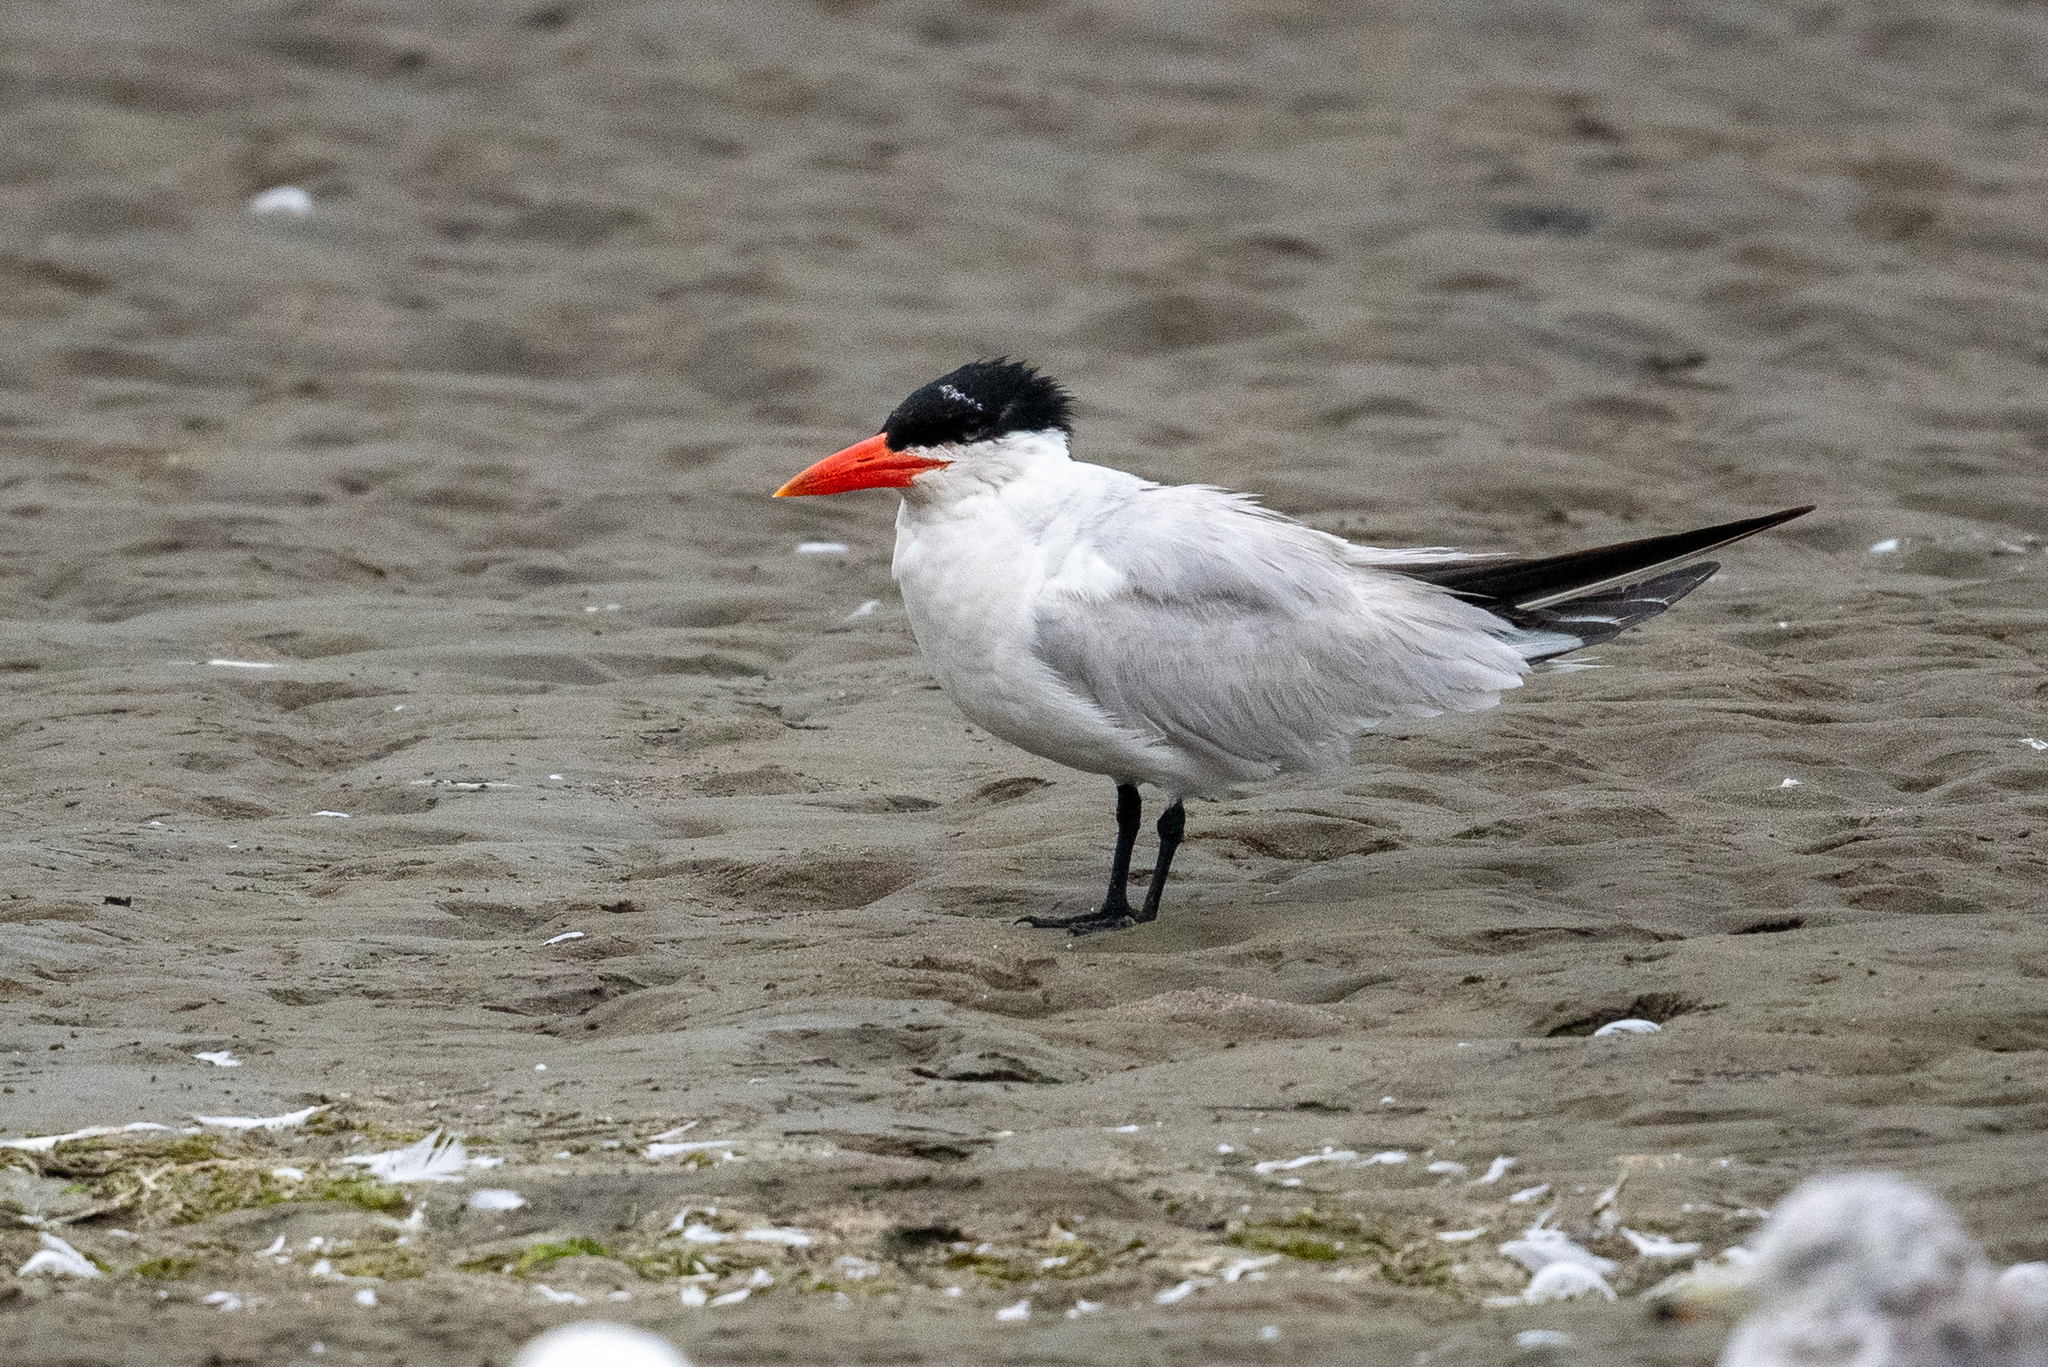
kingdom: Animalia
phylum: Chordata
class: Aves
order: Charadriiformes
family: Laridae
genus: Hydroprogne
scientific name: Hydroprogne caspia
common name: Caspian tern
